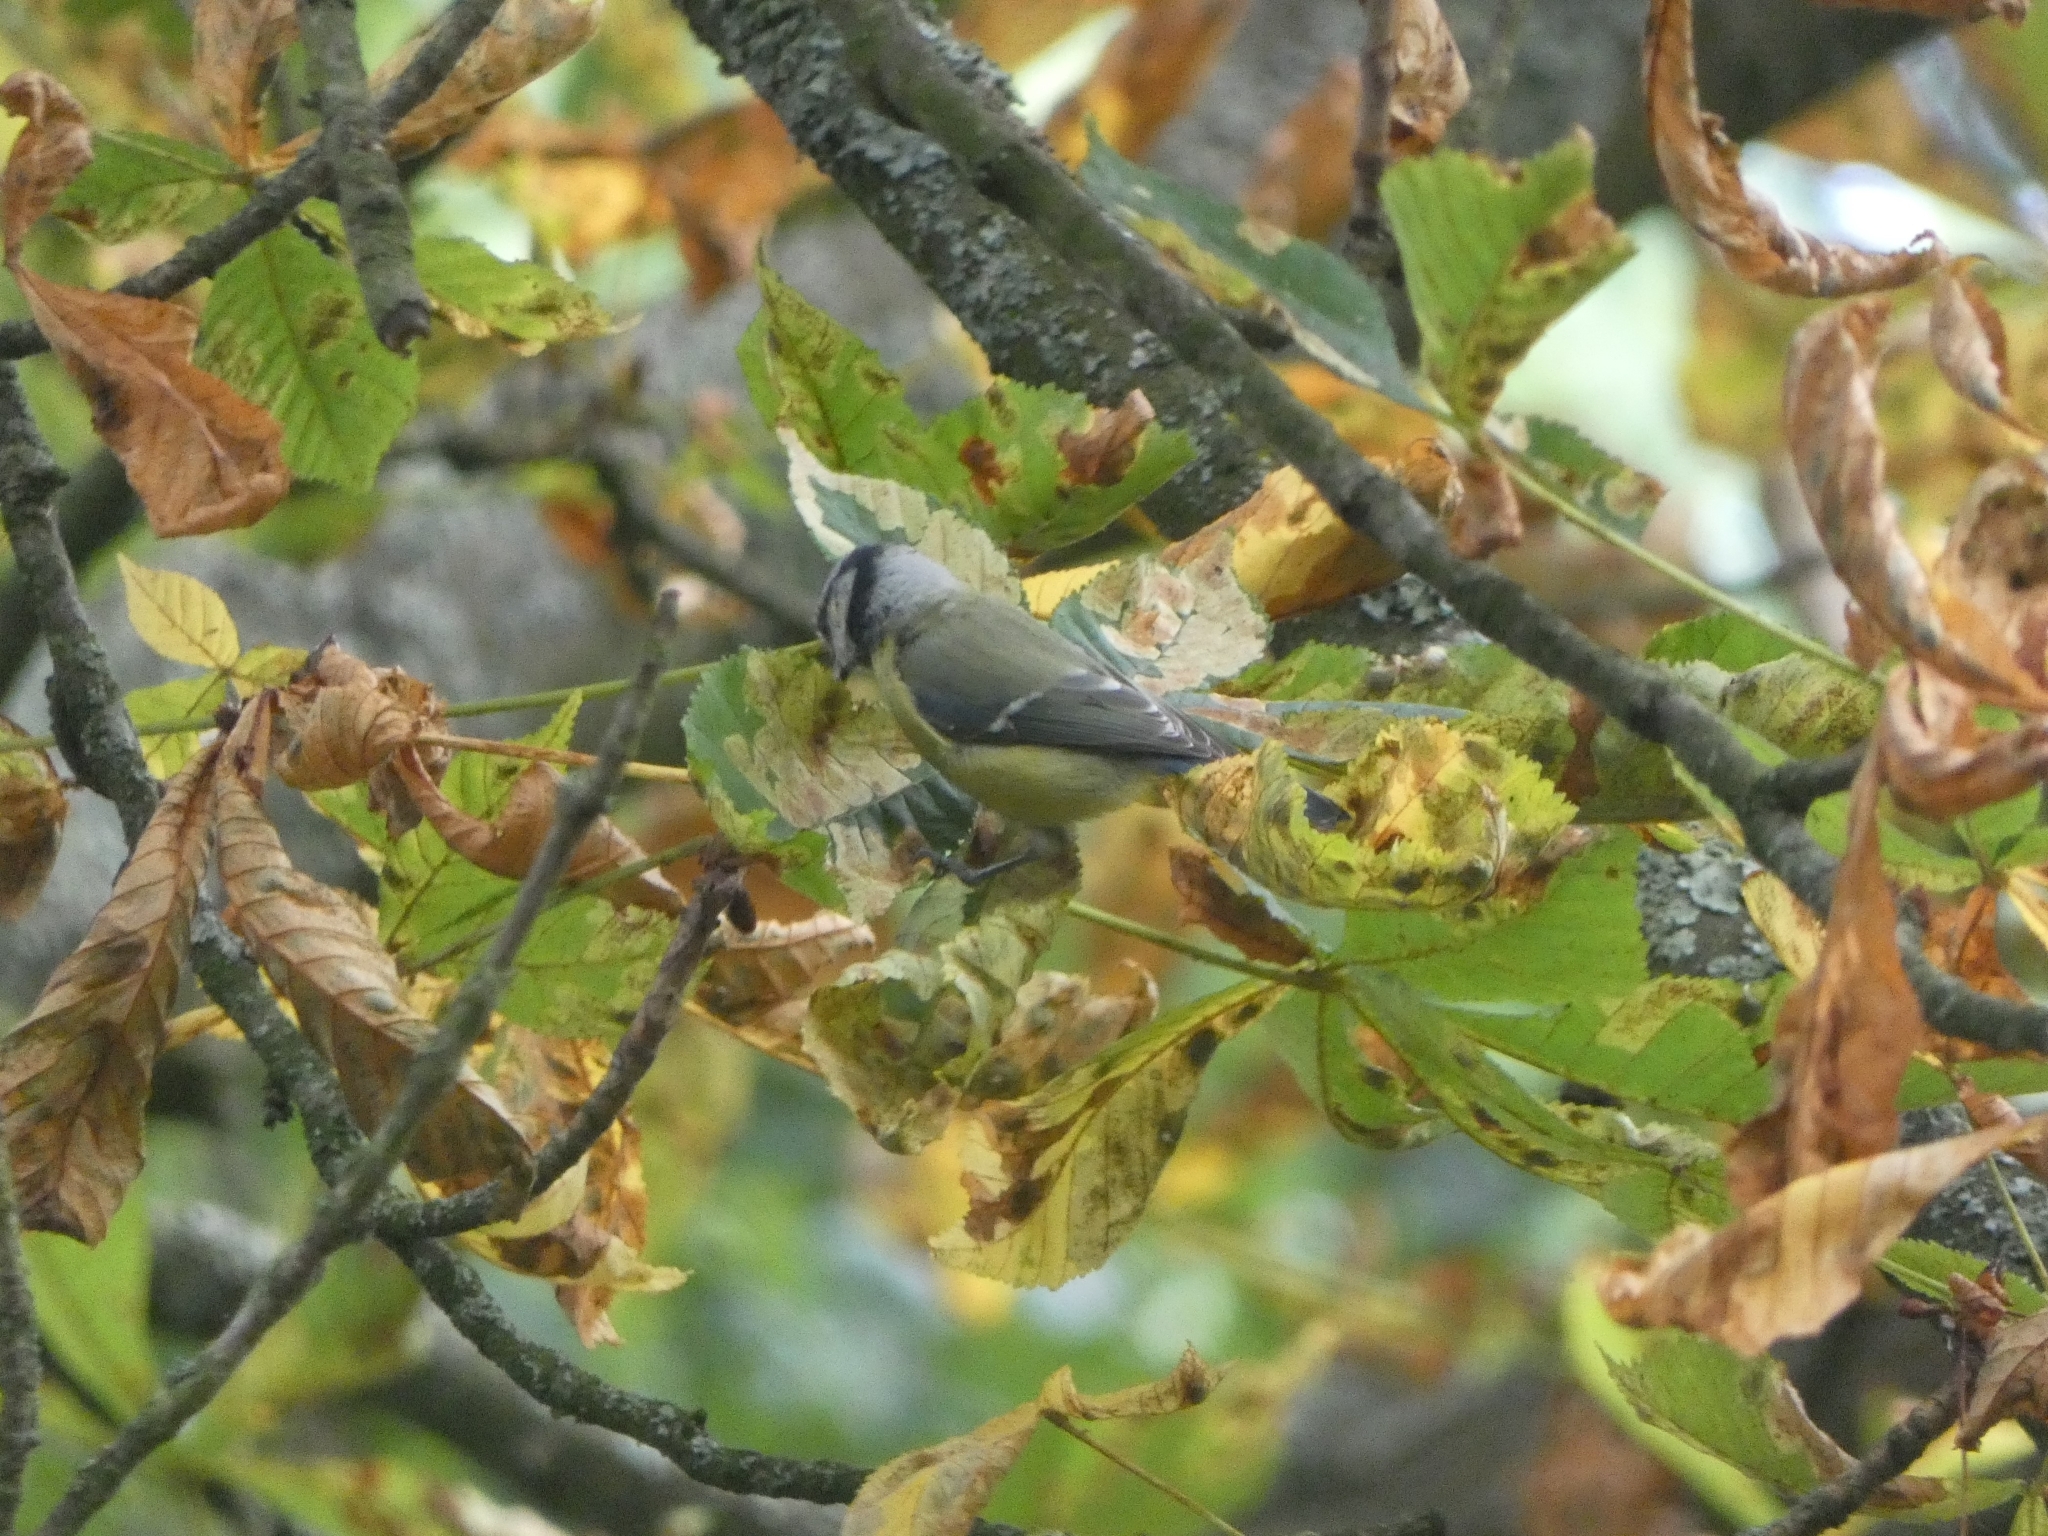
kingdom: Animalia
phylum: Chordata
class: Aves
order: Passeriformes
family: Paridae
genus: Cyanistes
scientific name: Cyanistes caeruleus
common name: Eurasian blue tit
